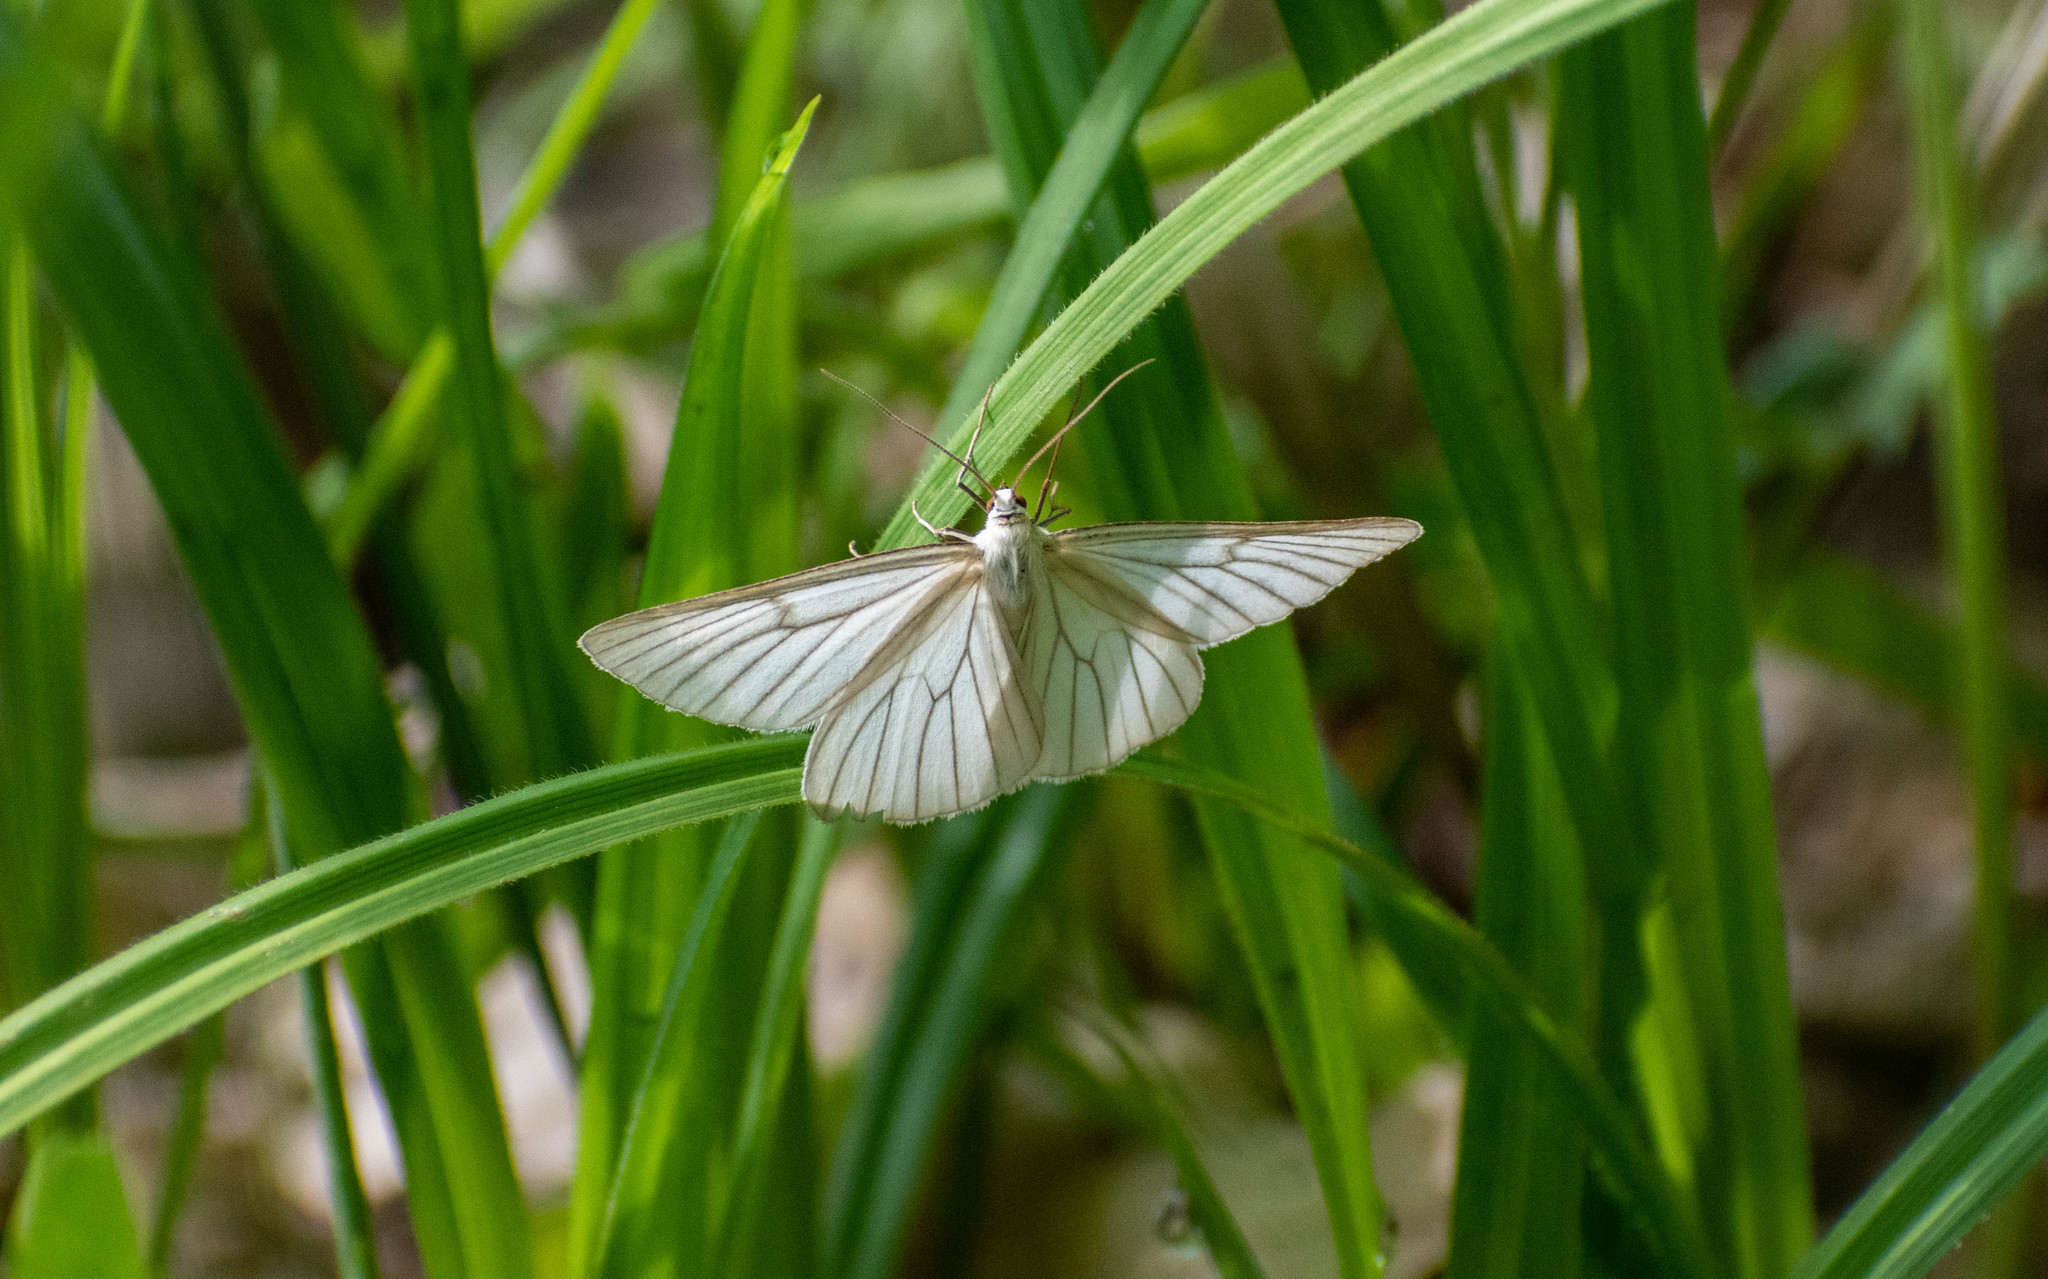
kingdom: Animalia
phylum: Arthropoda
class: Insecta
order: Lepidoptera
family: Geometridae
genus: Siona
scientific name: Siona lineata
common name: Black-veined moth
